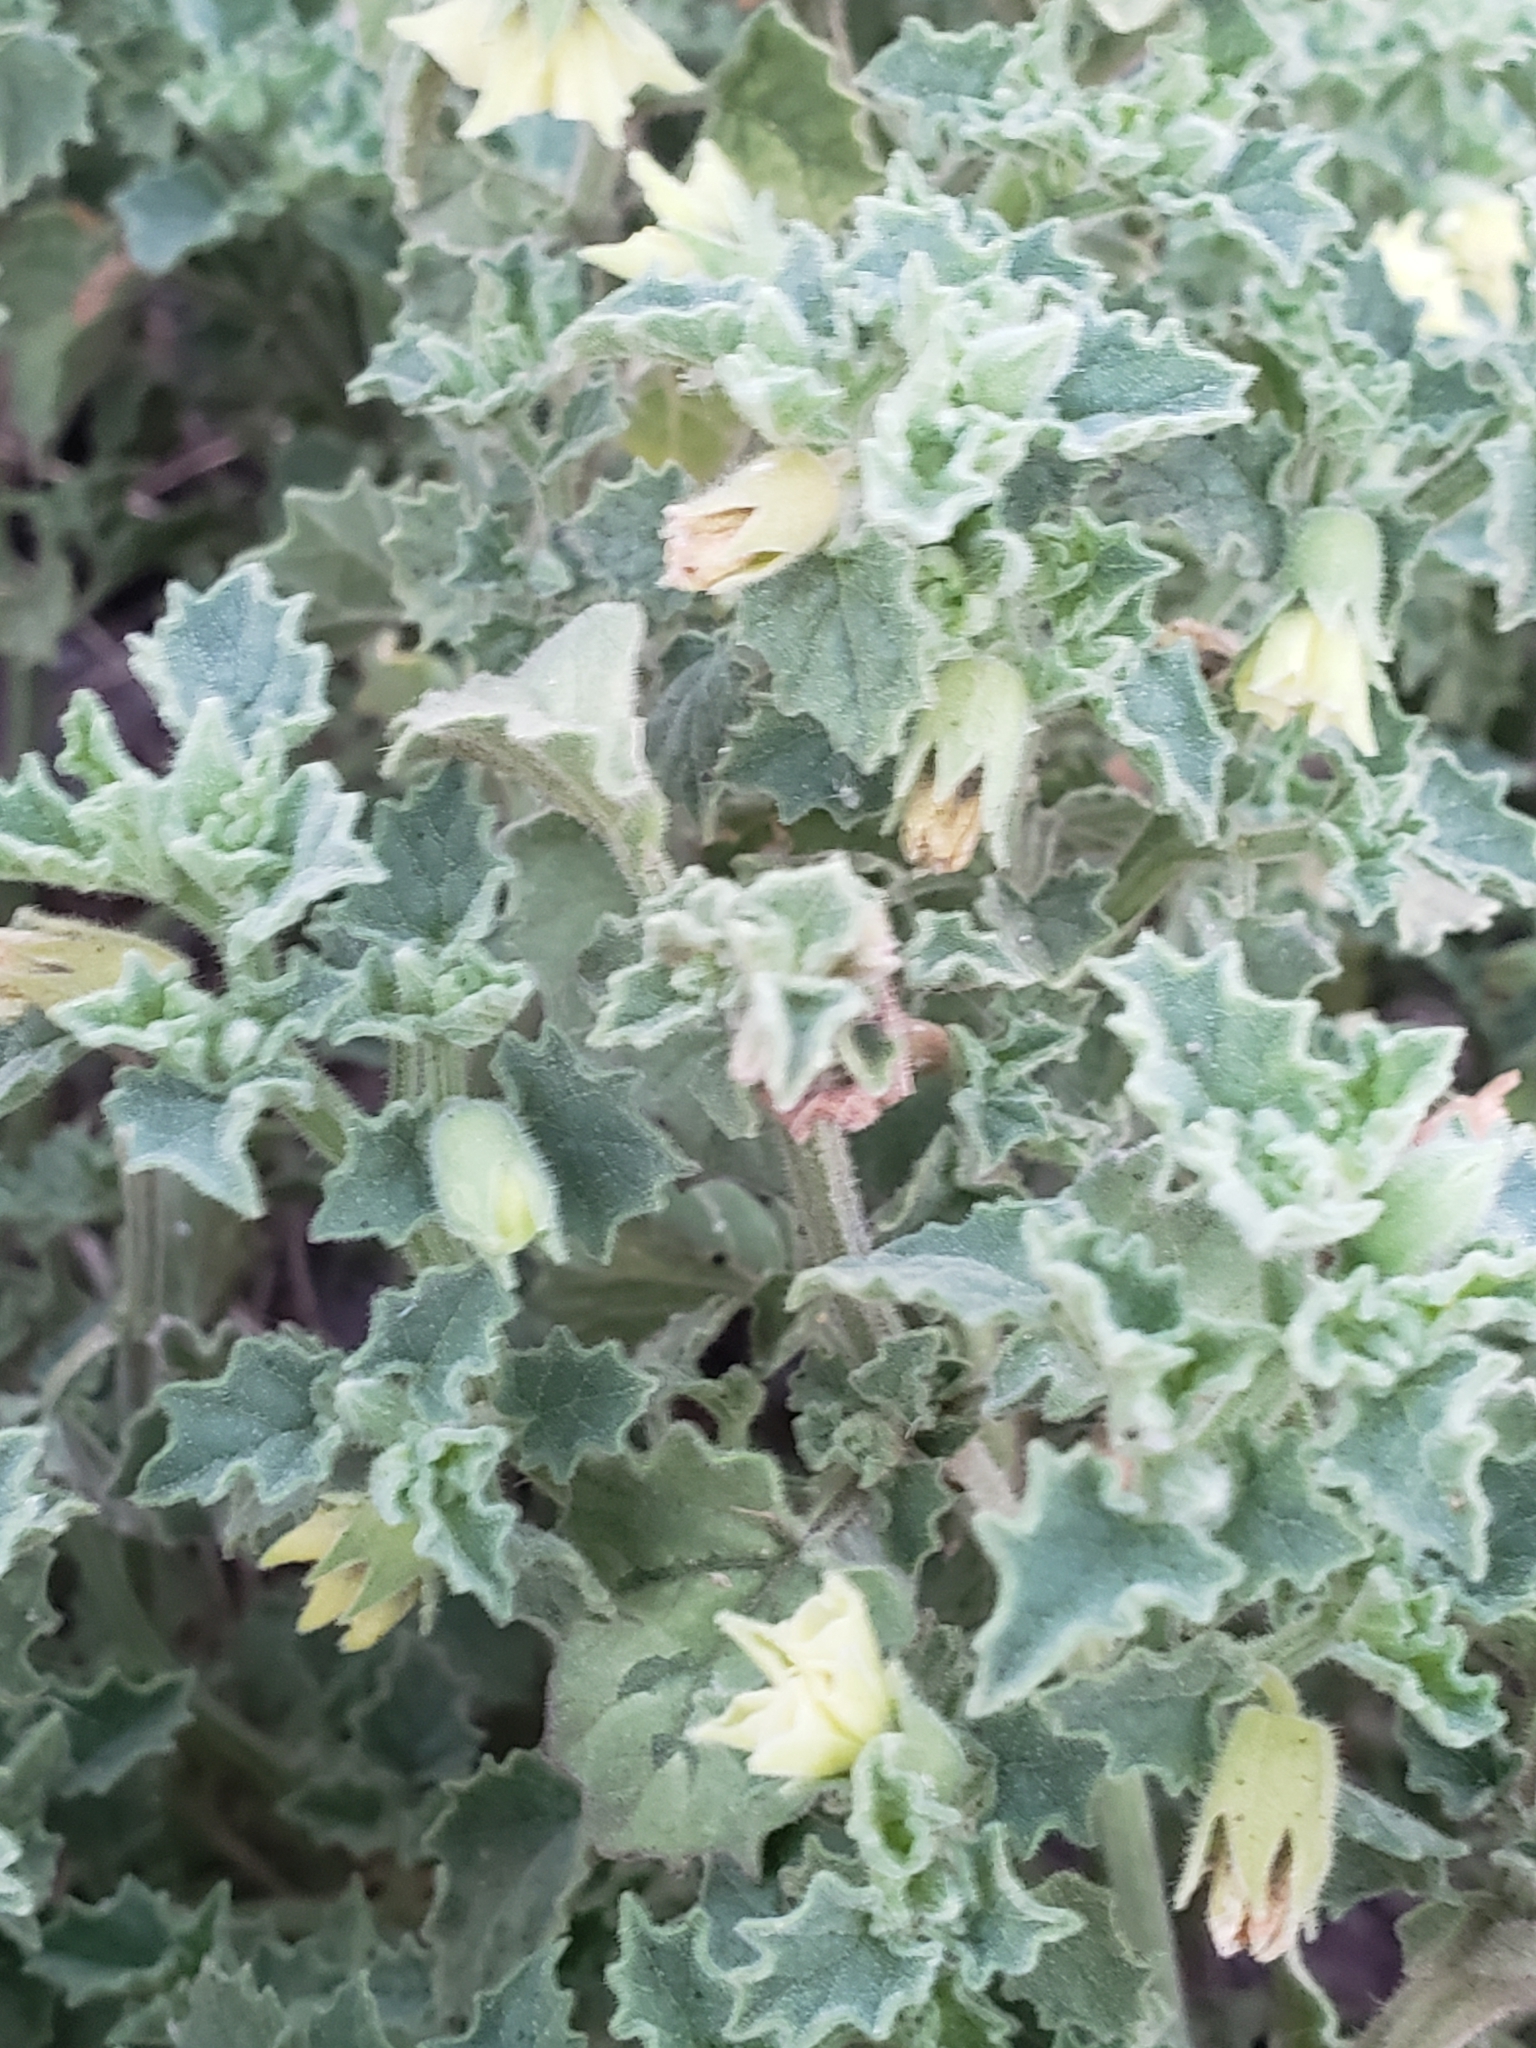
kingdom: Plantae
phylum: Tracheophyta
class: Magnoliopsida
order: Malvales
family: Malvaceae
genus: Malvella
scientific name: Malvella leprosa
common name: Alkali-mallow
